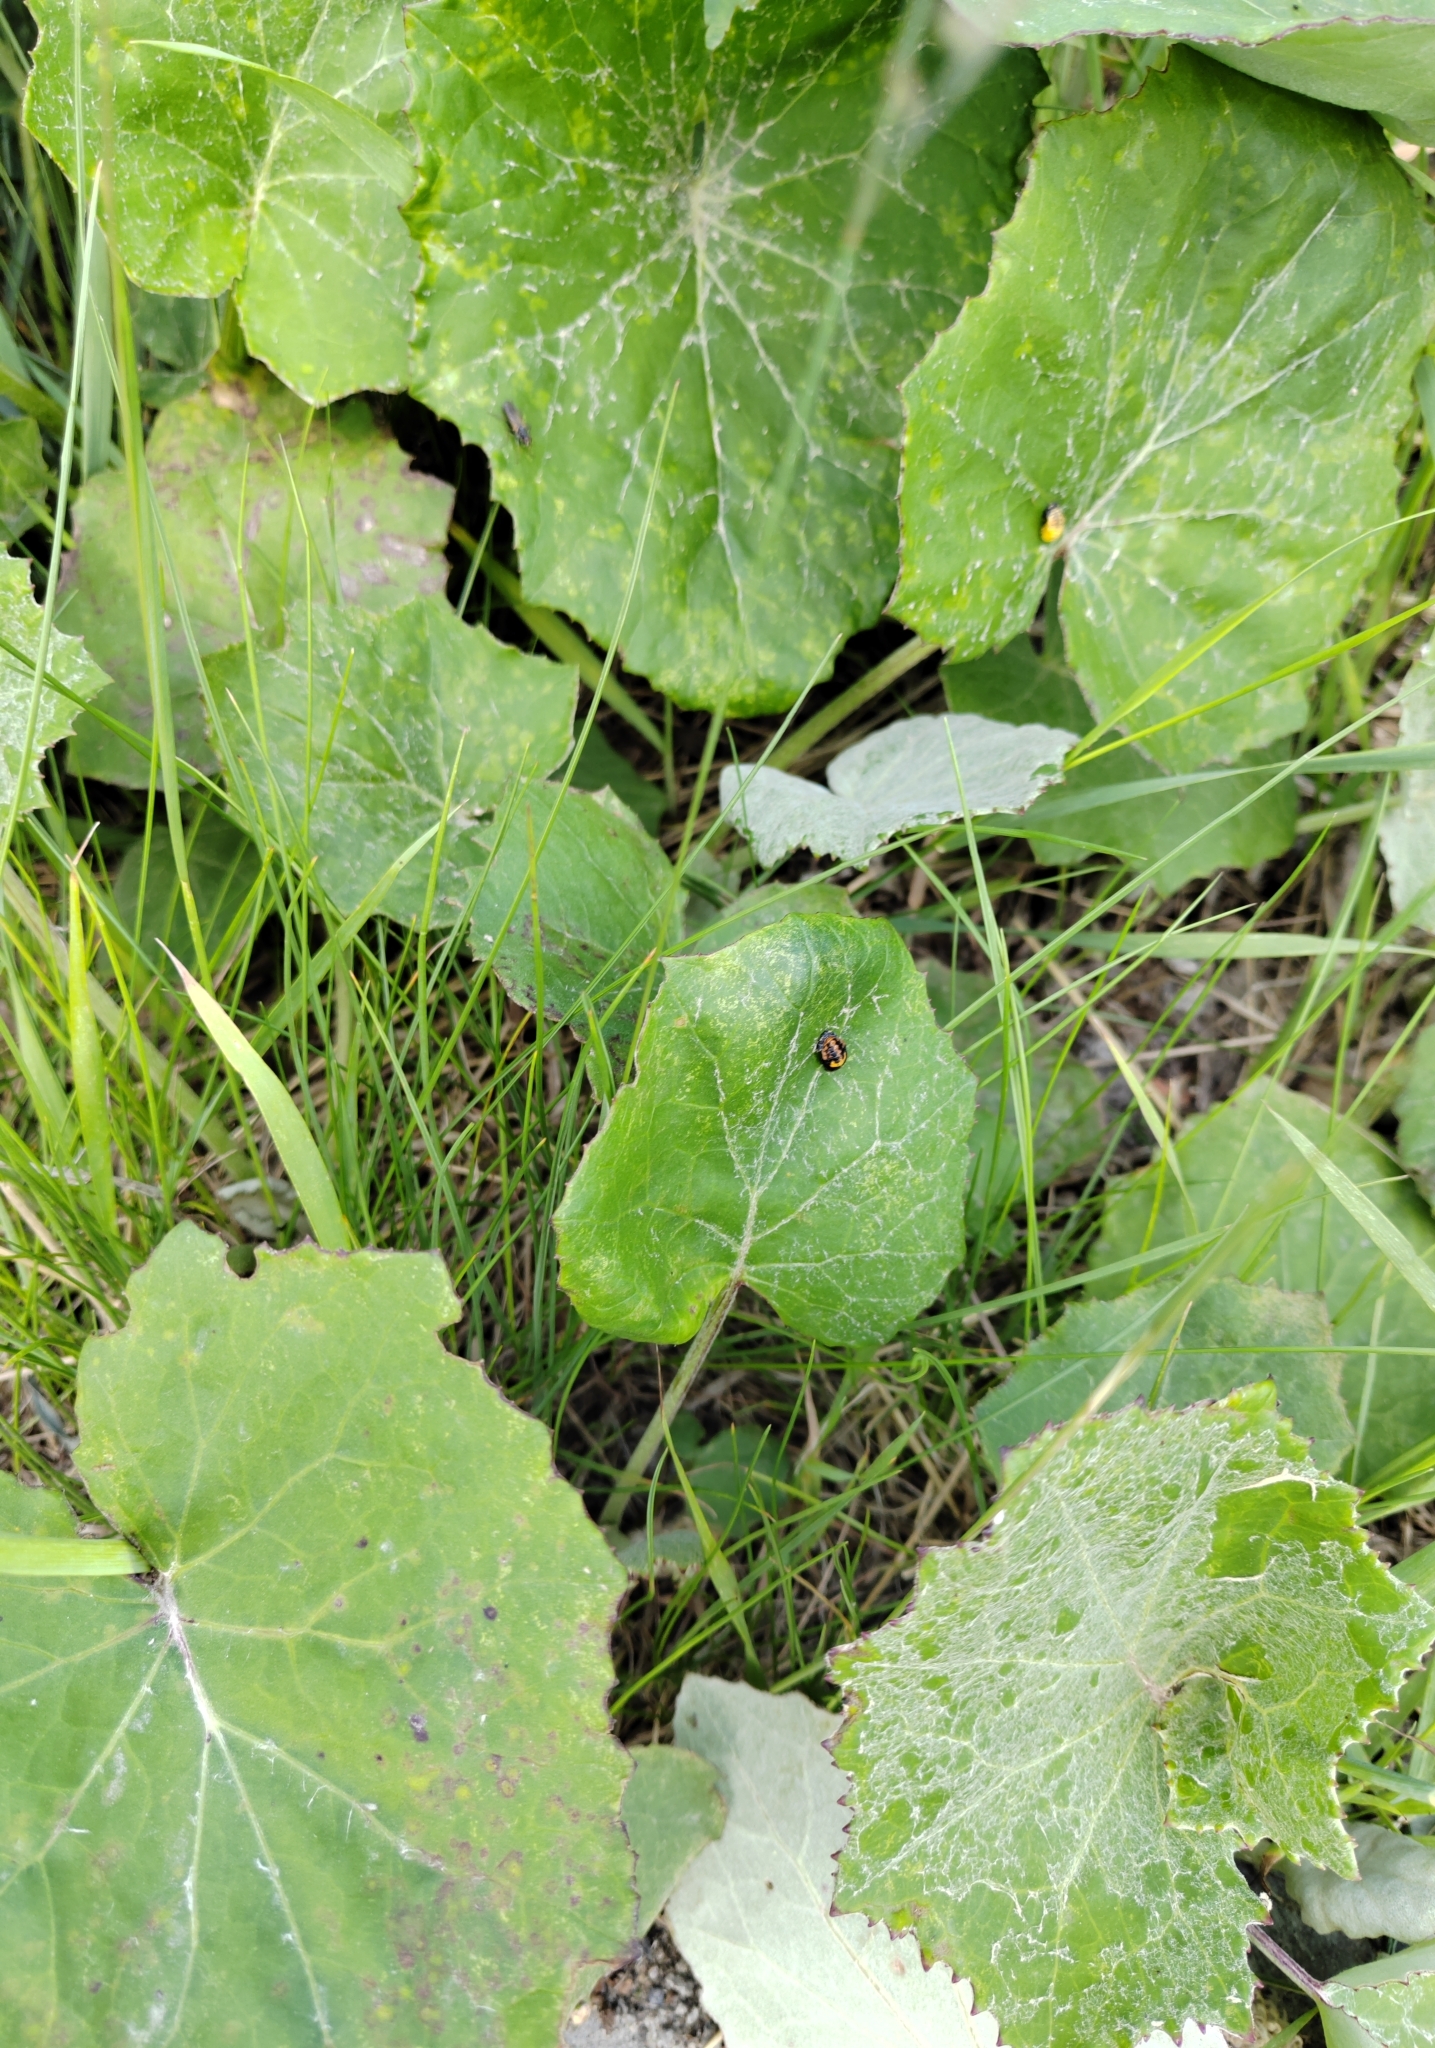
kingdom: Plantae
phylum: Tracheophyta
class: Magnoliopsida
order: Asterales
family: Asteraceae
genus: Tussilago
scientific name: Tussilago farfara
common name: Coltsfoot
